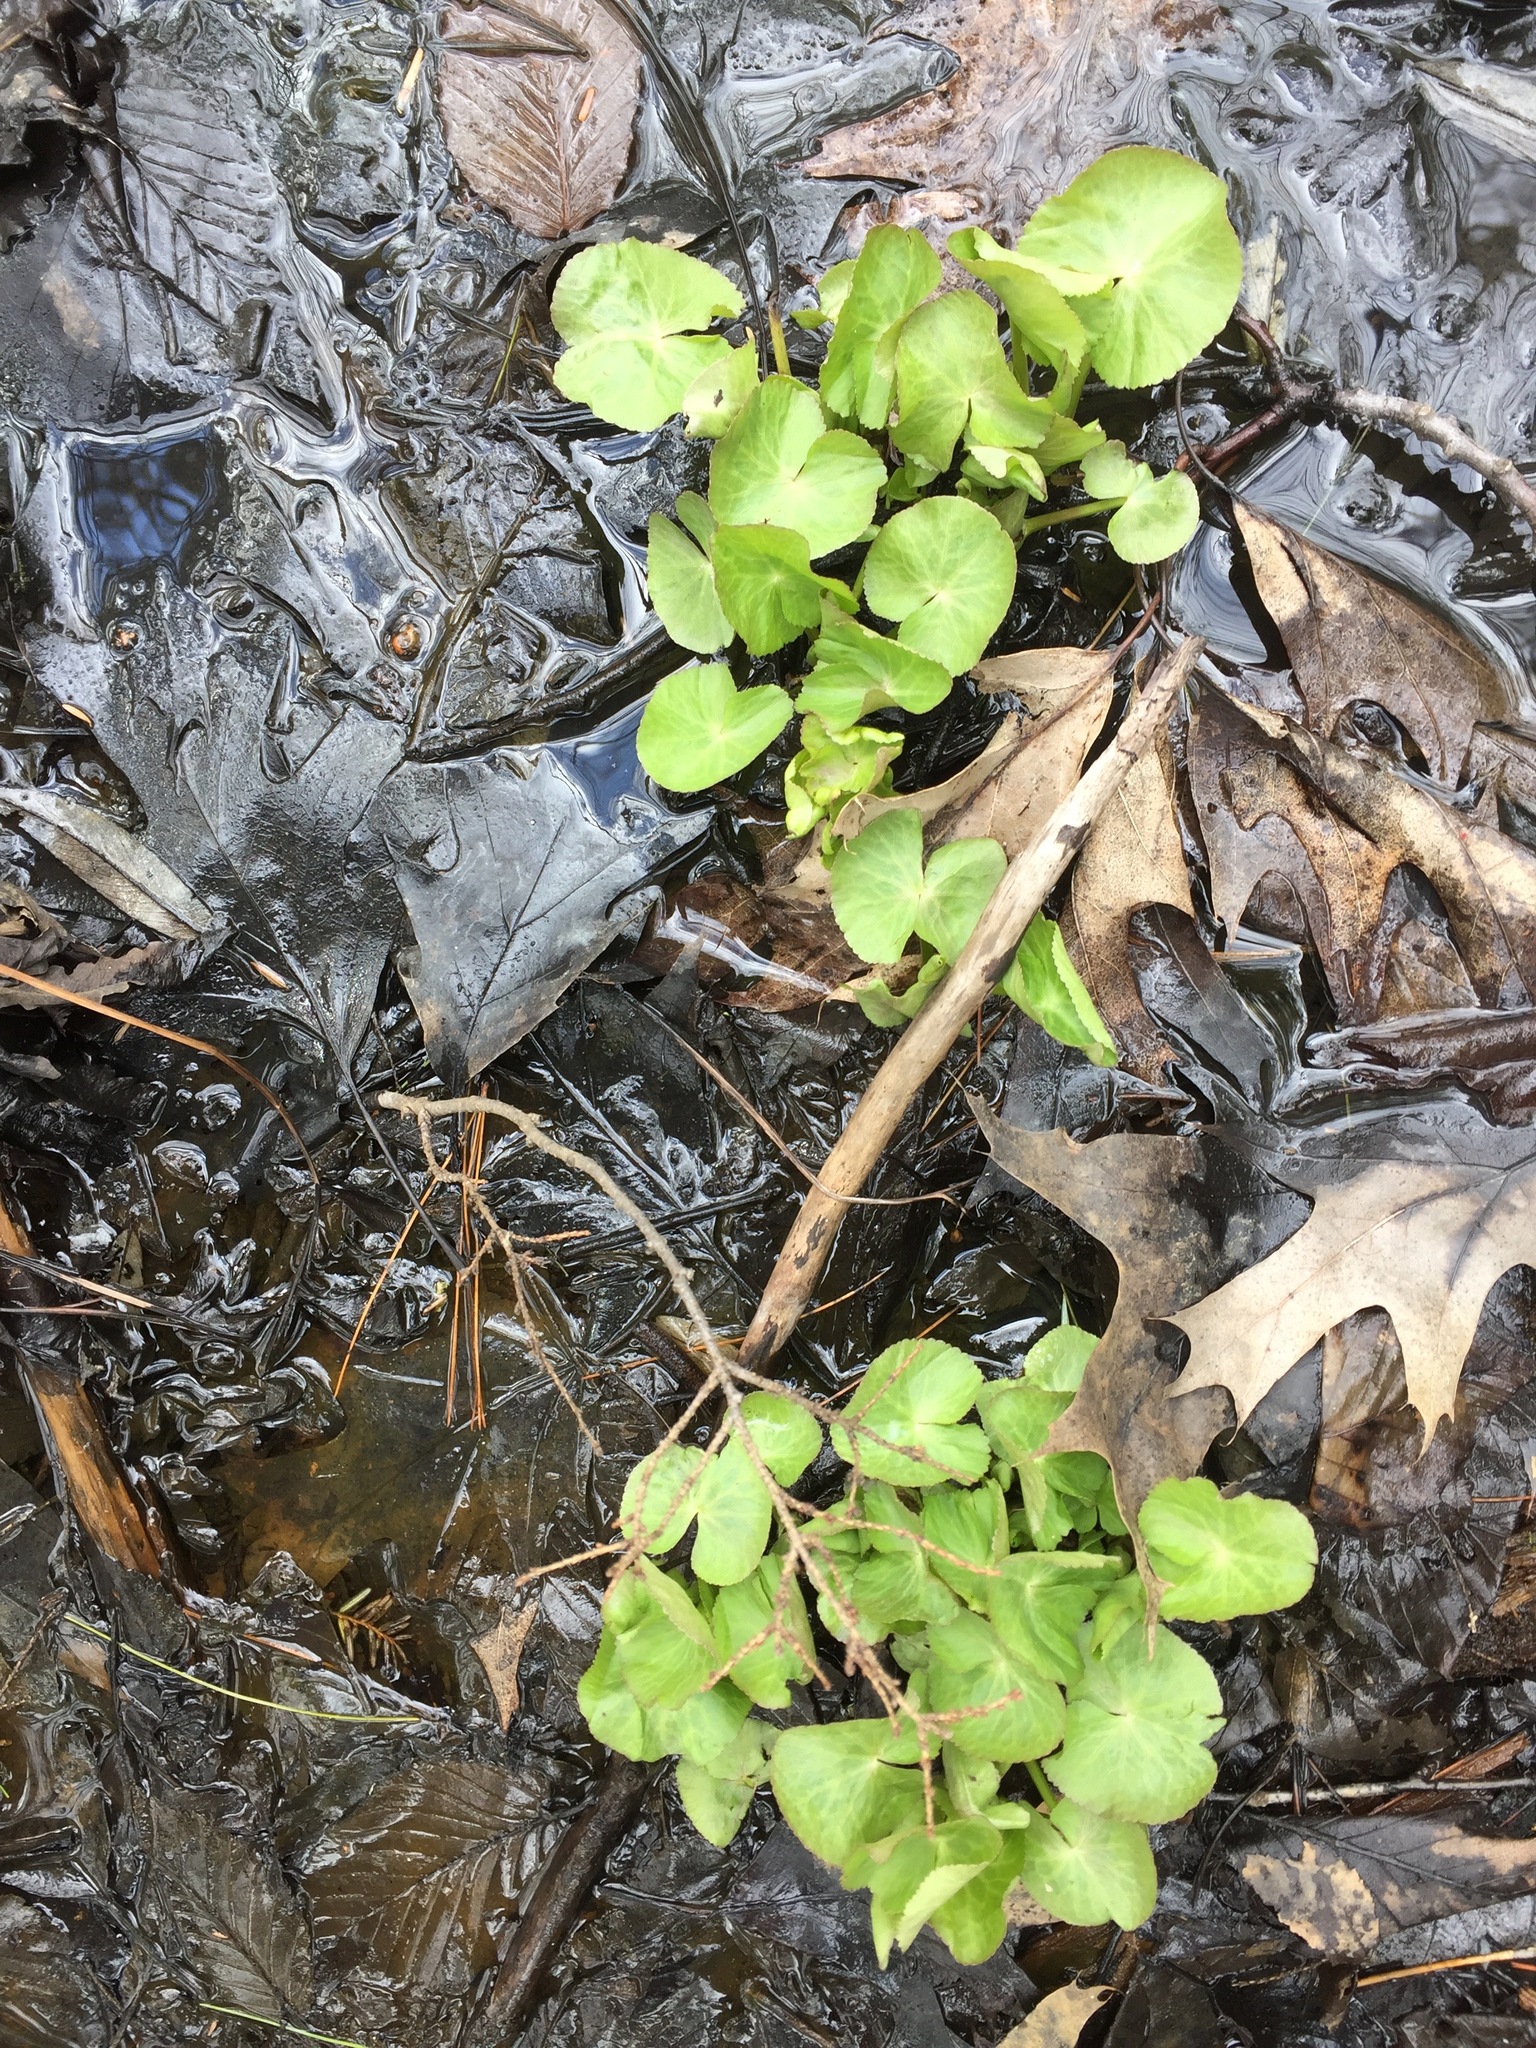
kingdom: Plantae
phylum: Tracheophyta
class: Magnoliopsida
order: Ranunculales
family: Ranunculaceae
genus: Caltha
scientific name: Caltha palustris
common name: Marsh marigold
